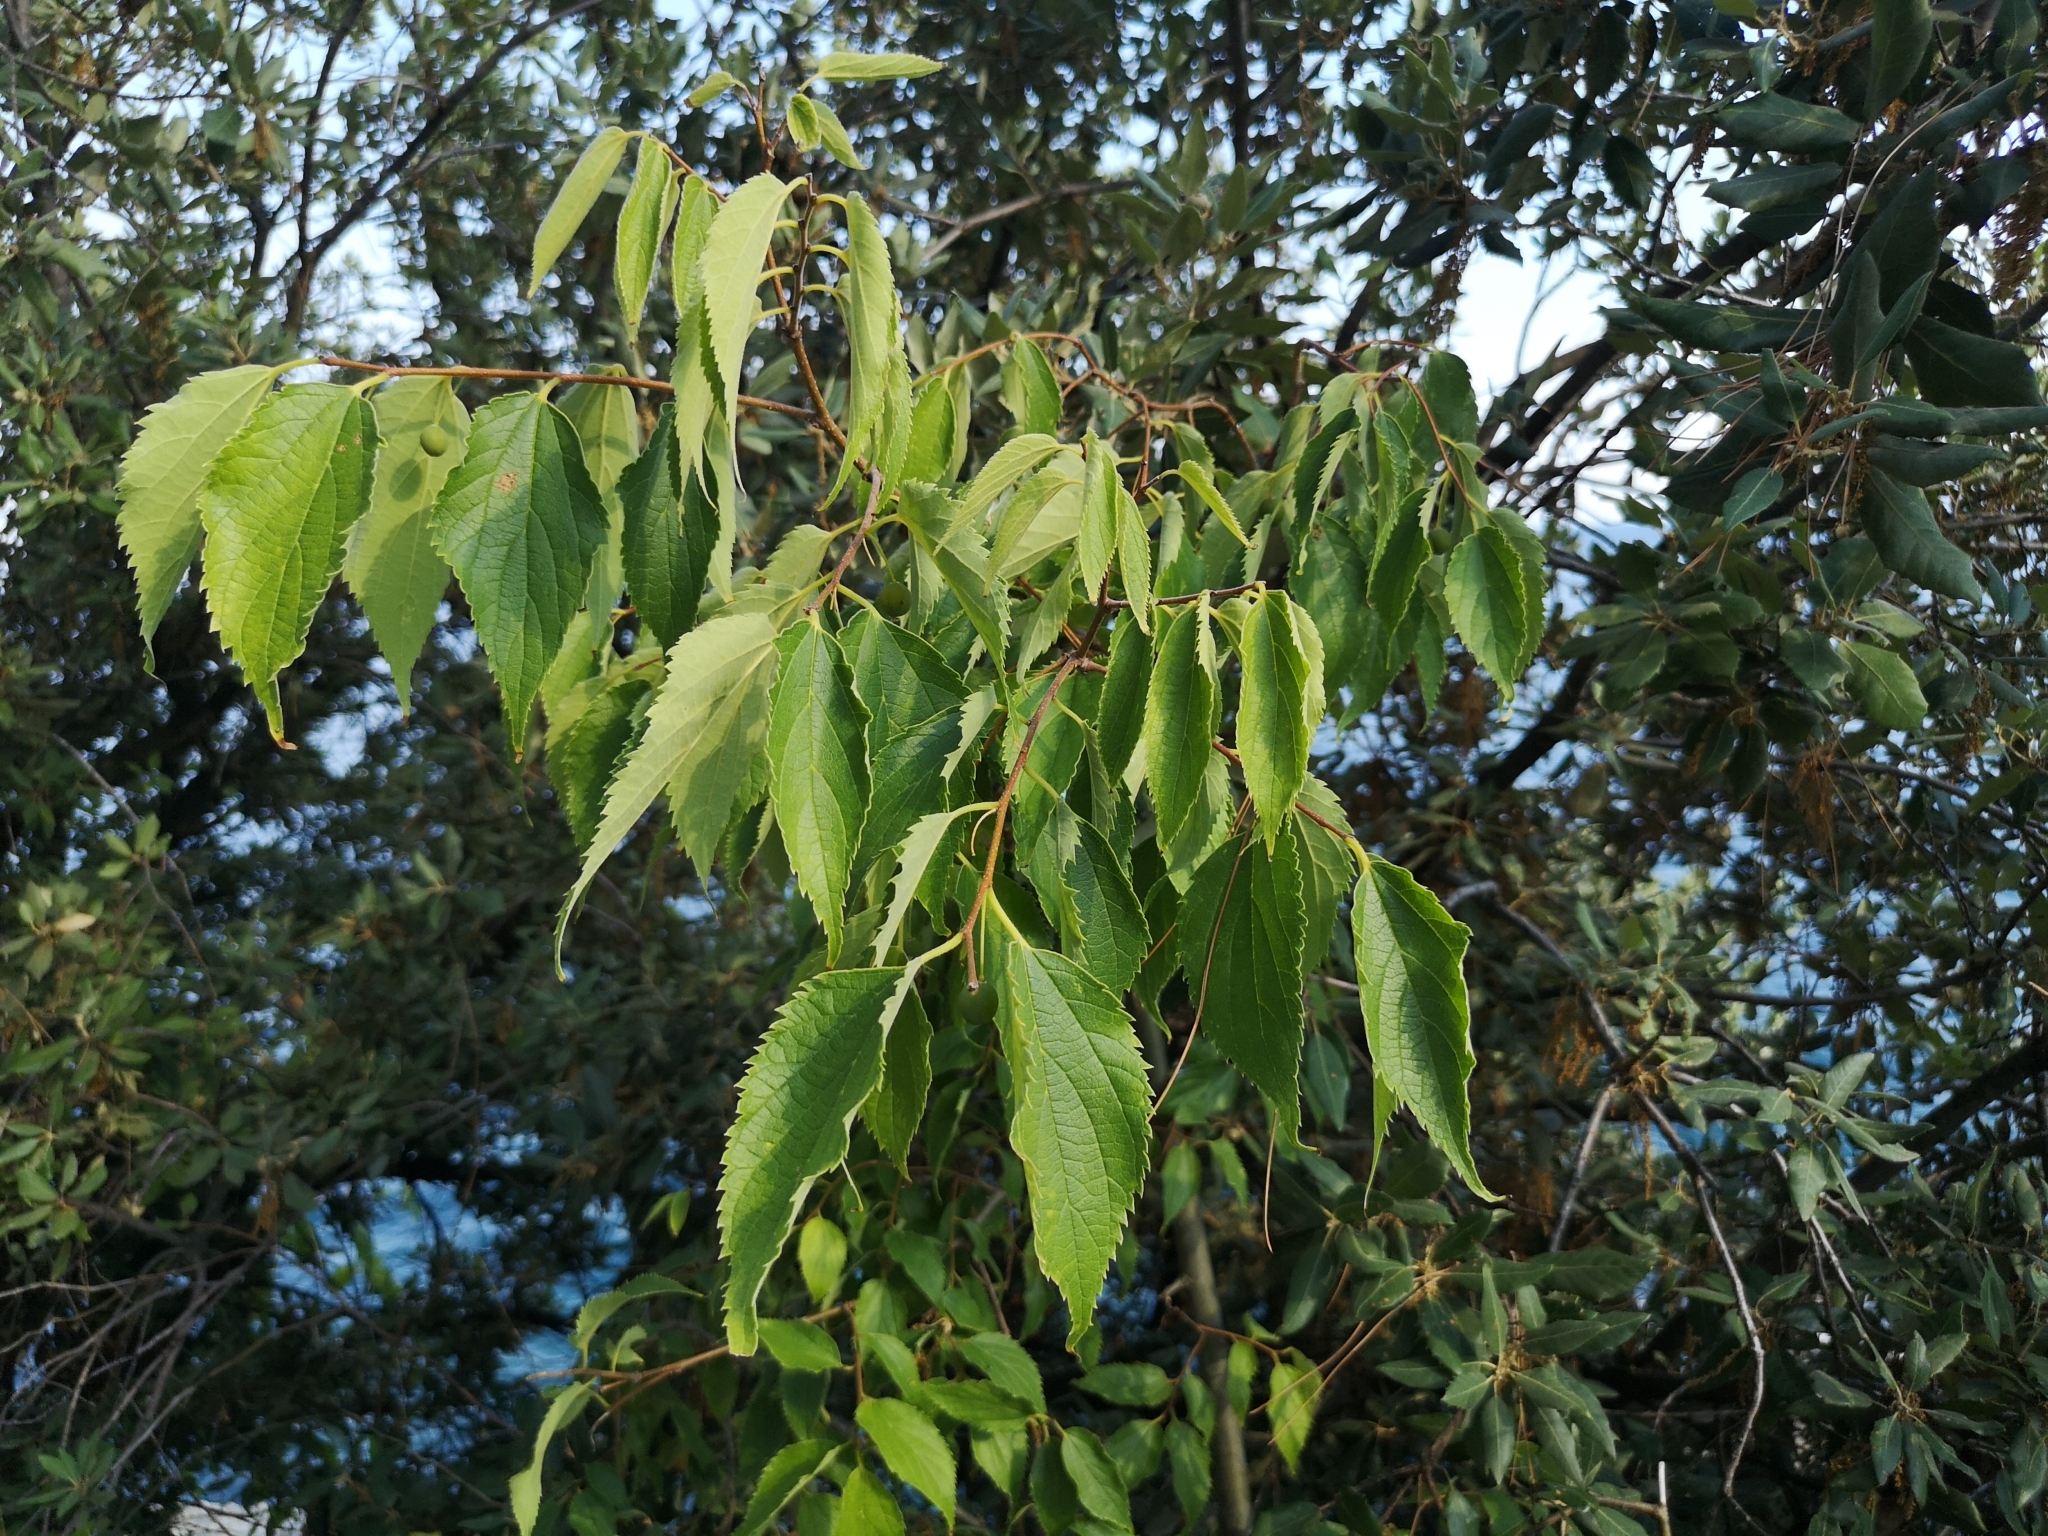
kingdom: Plantae
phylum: Tracheophyta
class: Magnoliopsida
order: Rosales
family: Cannabaceae
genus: Celtis
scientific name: Celtis australis
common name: European hackberry
